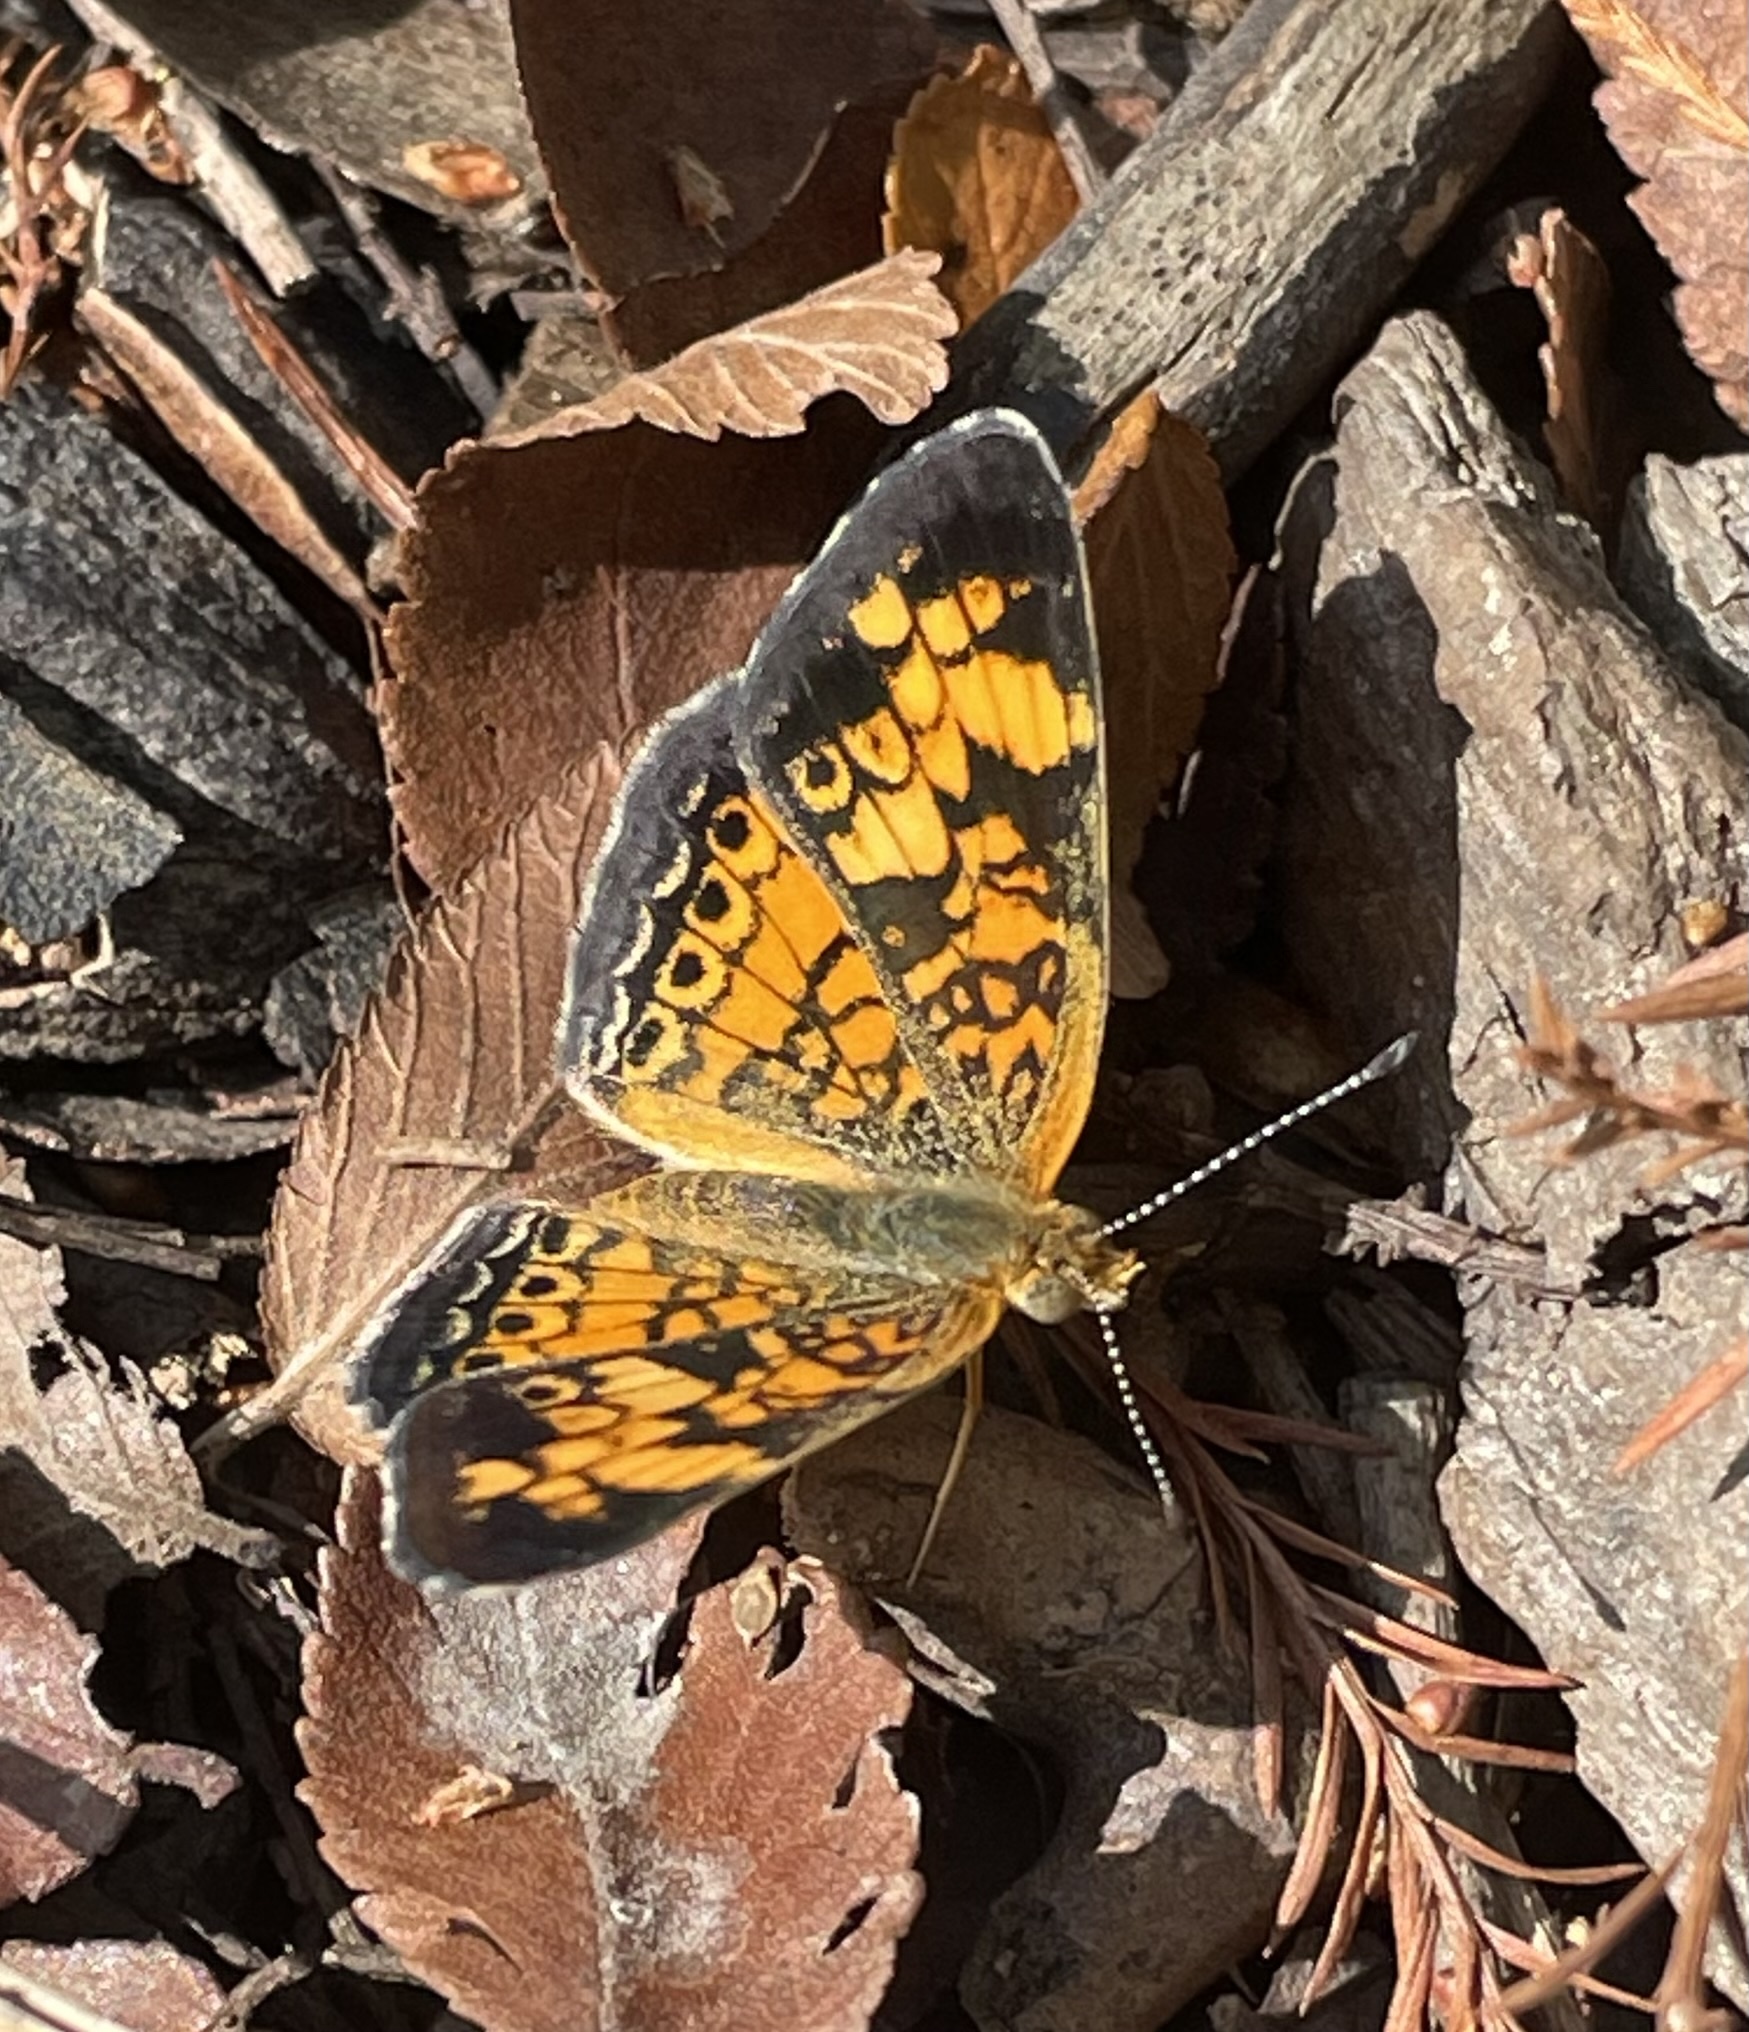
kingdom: Animalia
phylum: Arthropoda
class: Insecta
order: Lepidoptera
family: Nymphalidae
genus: Phyciodes
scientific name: Phyciodes tharos
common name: Pearl crescent
